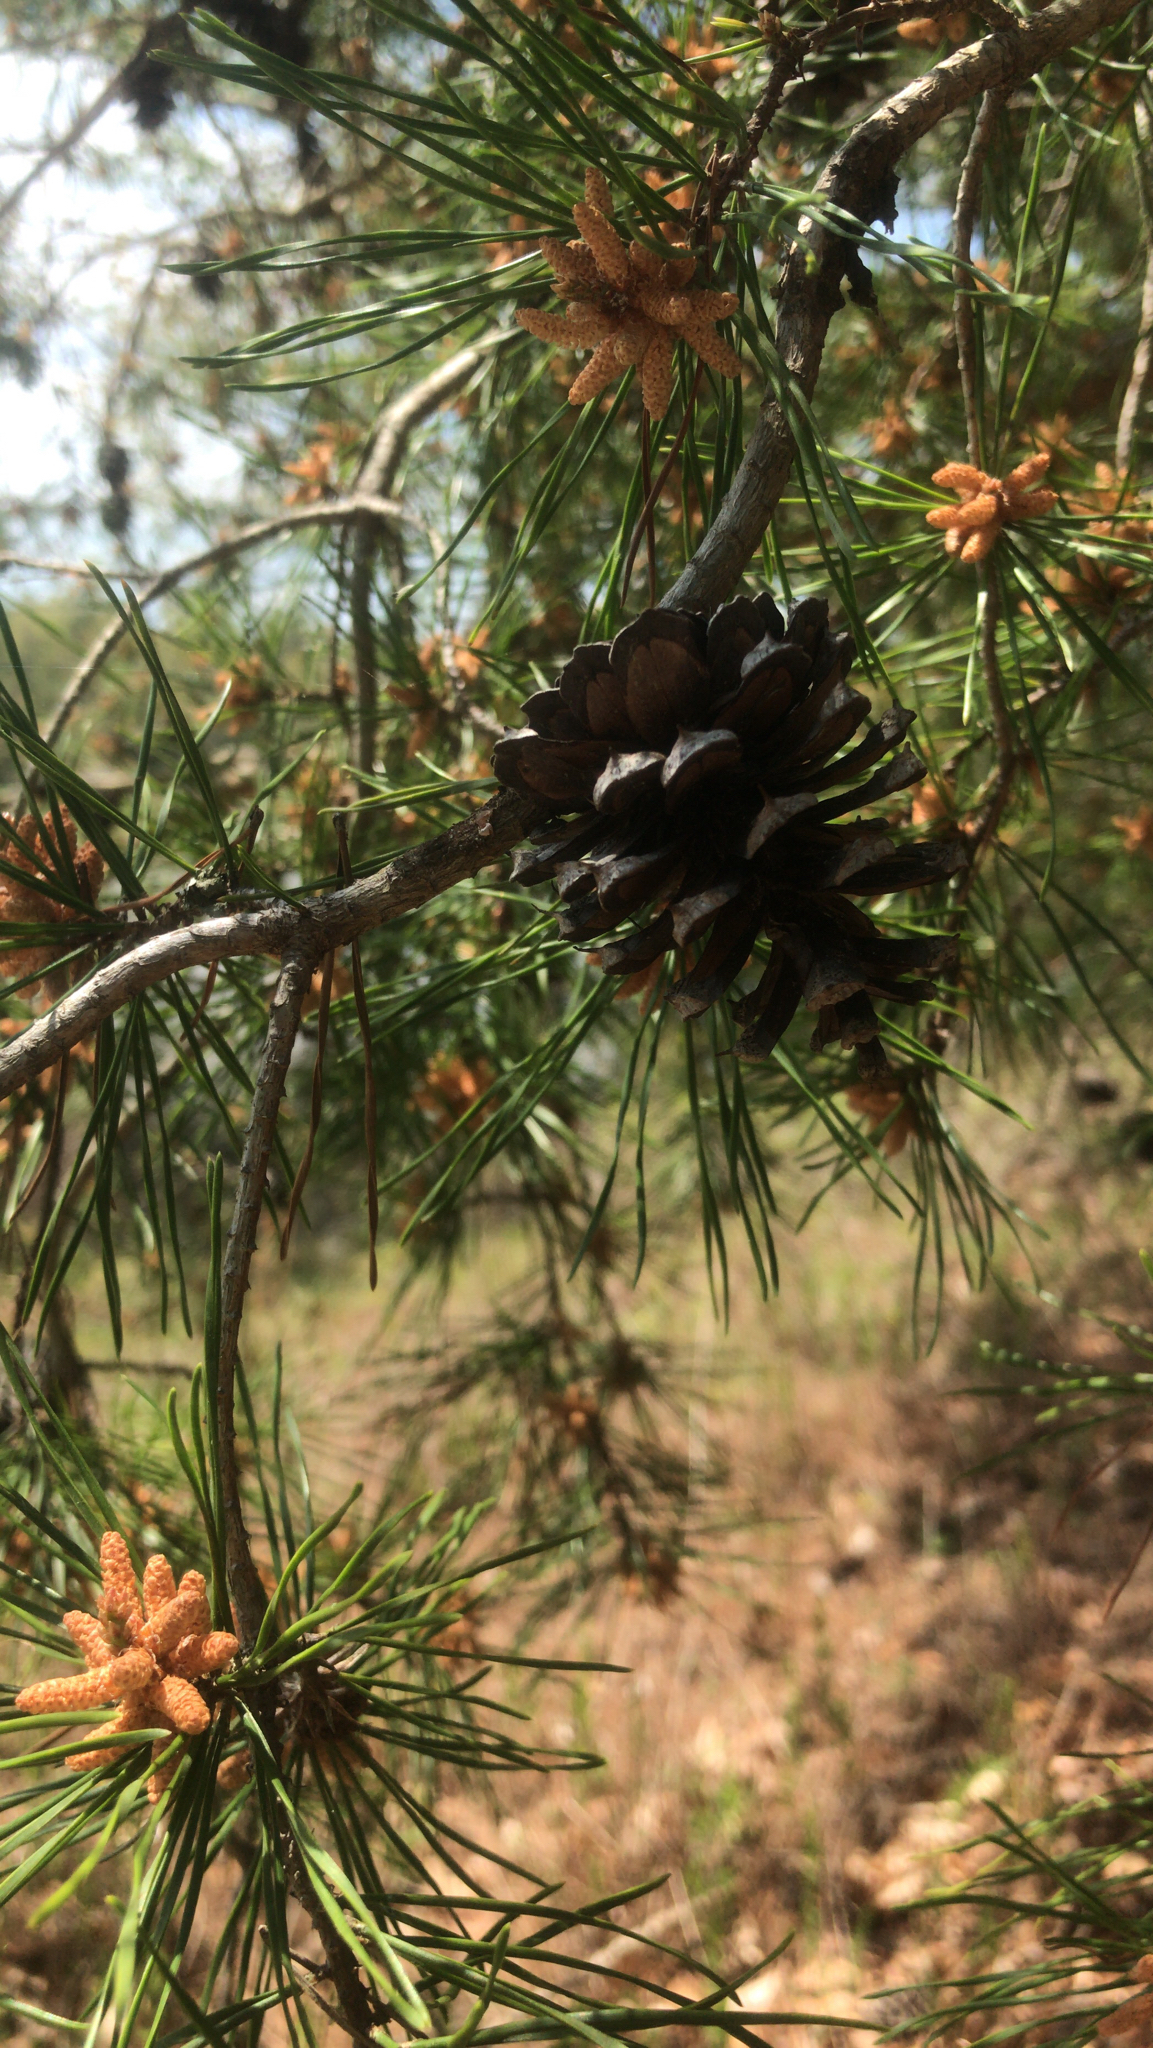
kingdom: Plantae
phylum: Tracheophyta
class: Pinopsida
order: Pinales
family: Pinaceae
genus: Pinus
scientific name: Pinus virginiana
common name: Scrub pine
